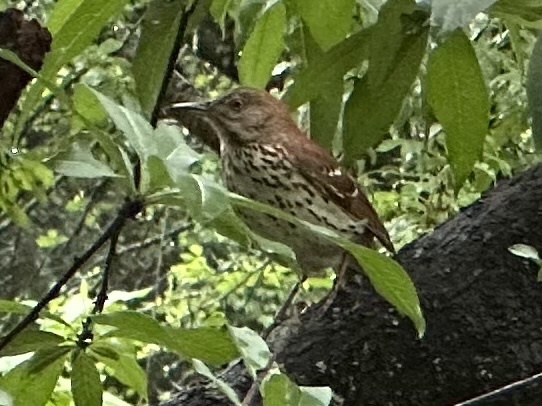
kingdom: Animalia
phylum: Chordata
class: Aves
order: Passeriformes
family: Mimidae
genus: Toxostoma
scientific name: Toxostoma rufum
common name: Brown thrasher
